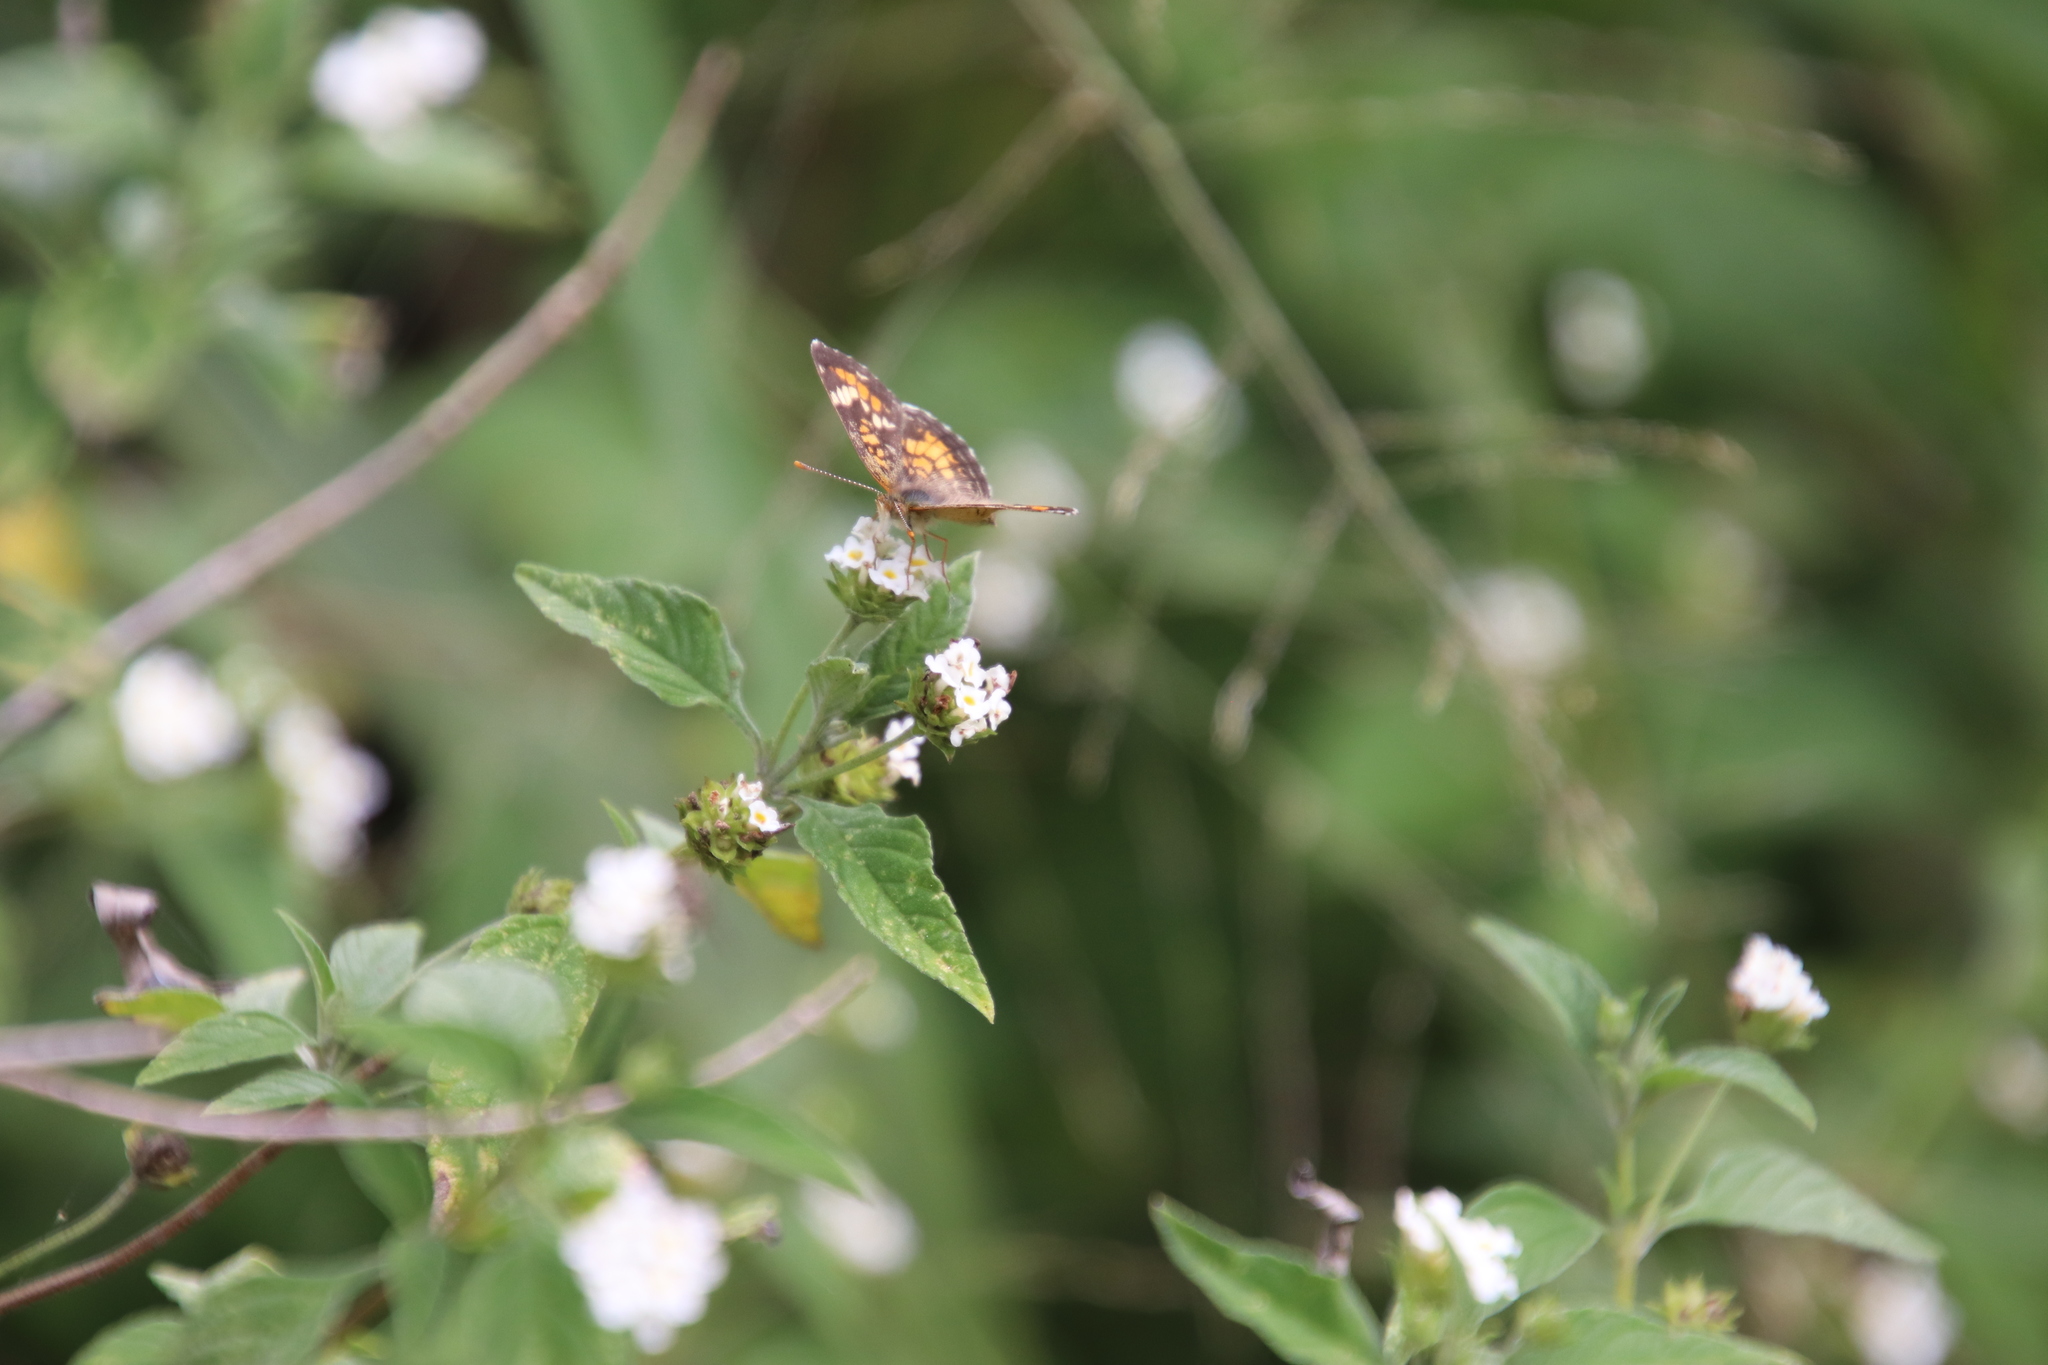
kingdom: Plantae
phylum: Tracheophyta
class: Magnoliopsida
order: Lamiales
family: Verbenaceae
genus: Lantana
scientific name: Lantana canescens
